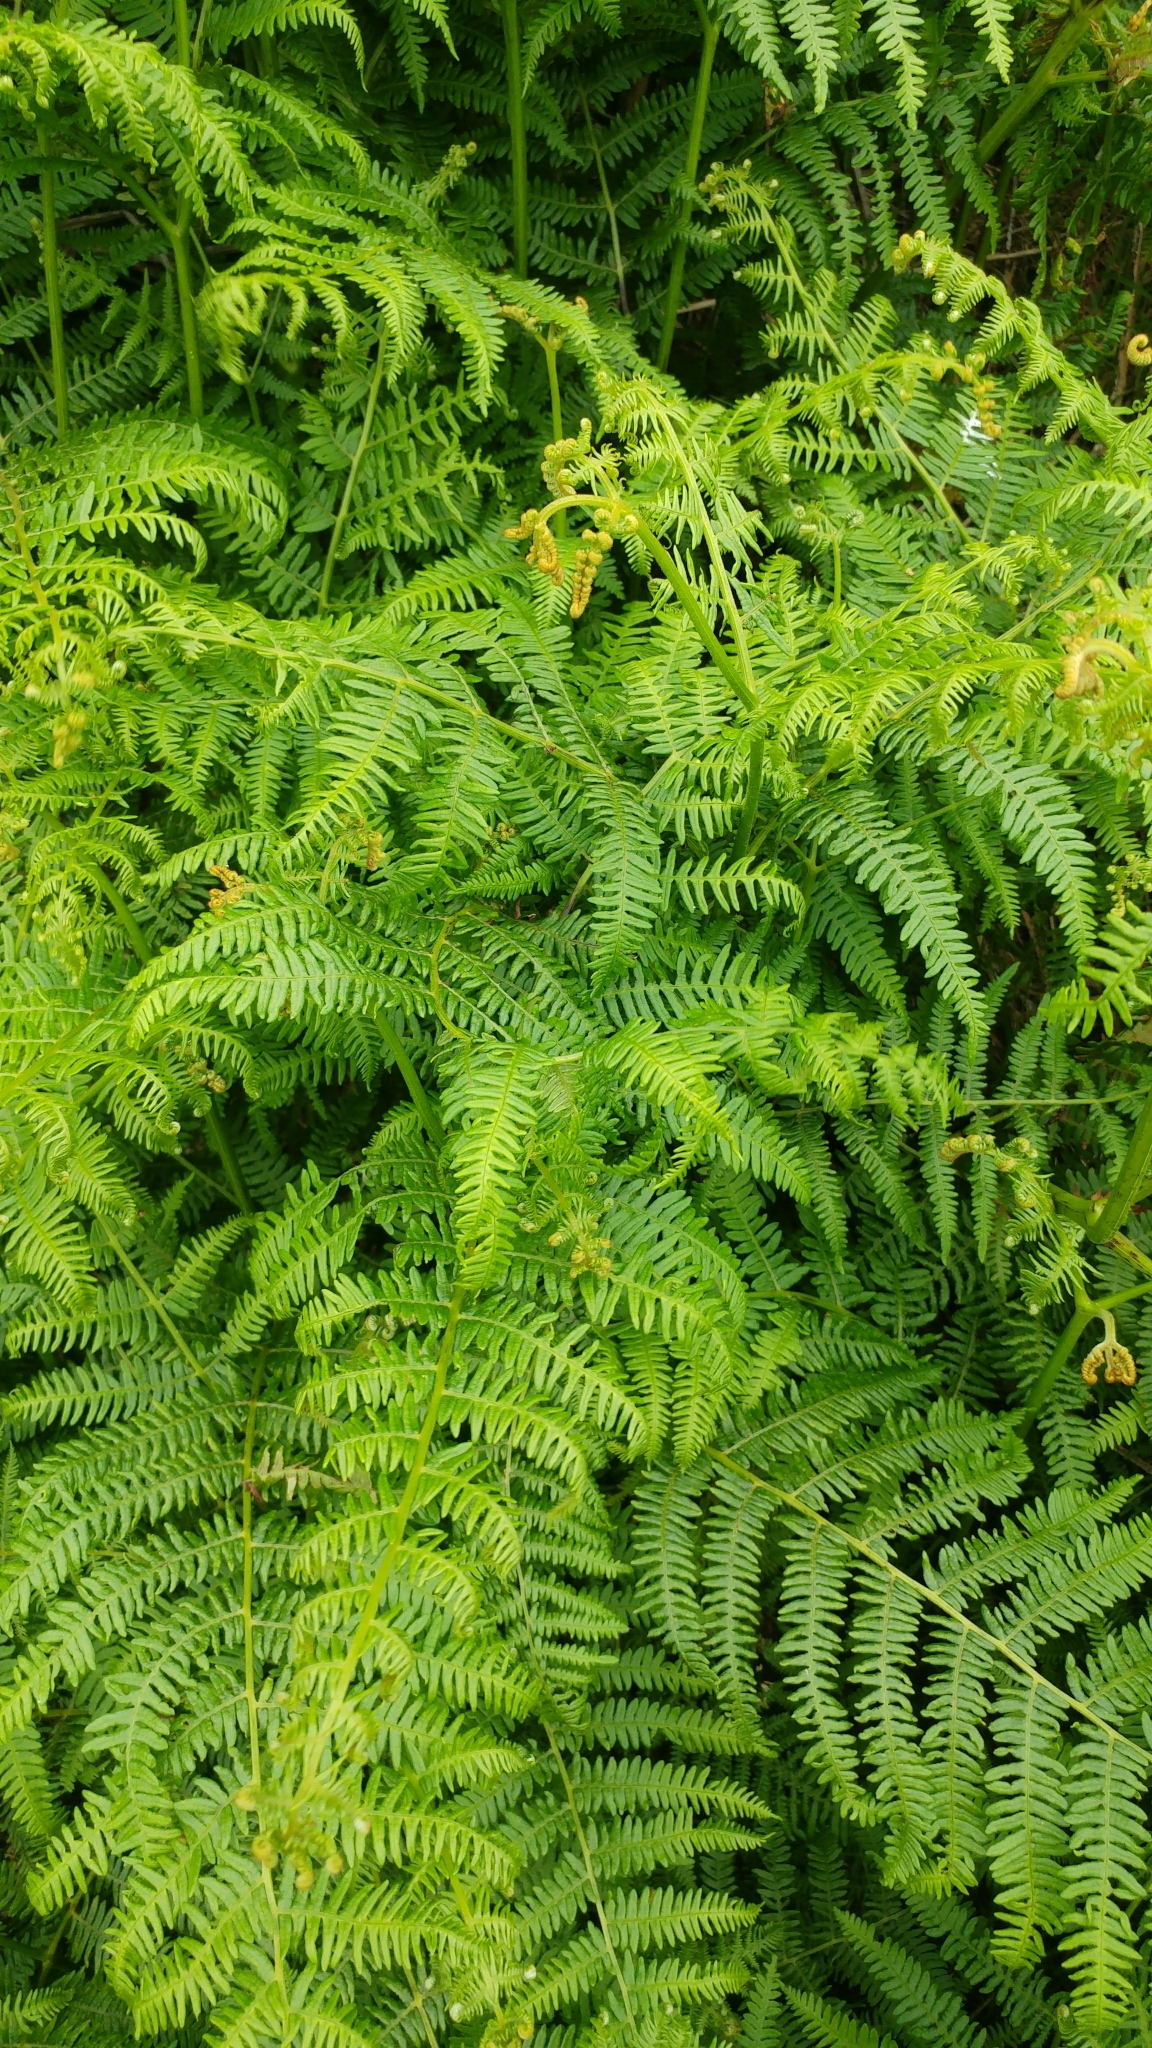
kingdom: Plantae
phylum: Tracheophyta
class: Polypodiopsida
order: Polypodiales
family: Dennstaedtiaceae
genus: Pteridium
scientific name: Pteridium aquilinum
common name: Bracken
